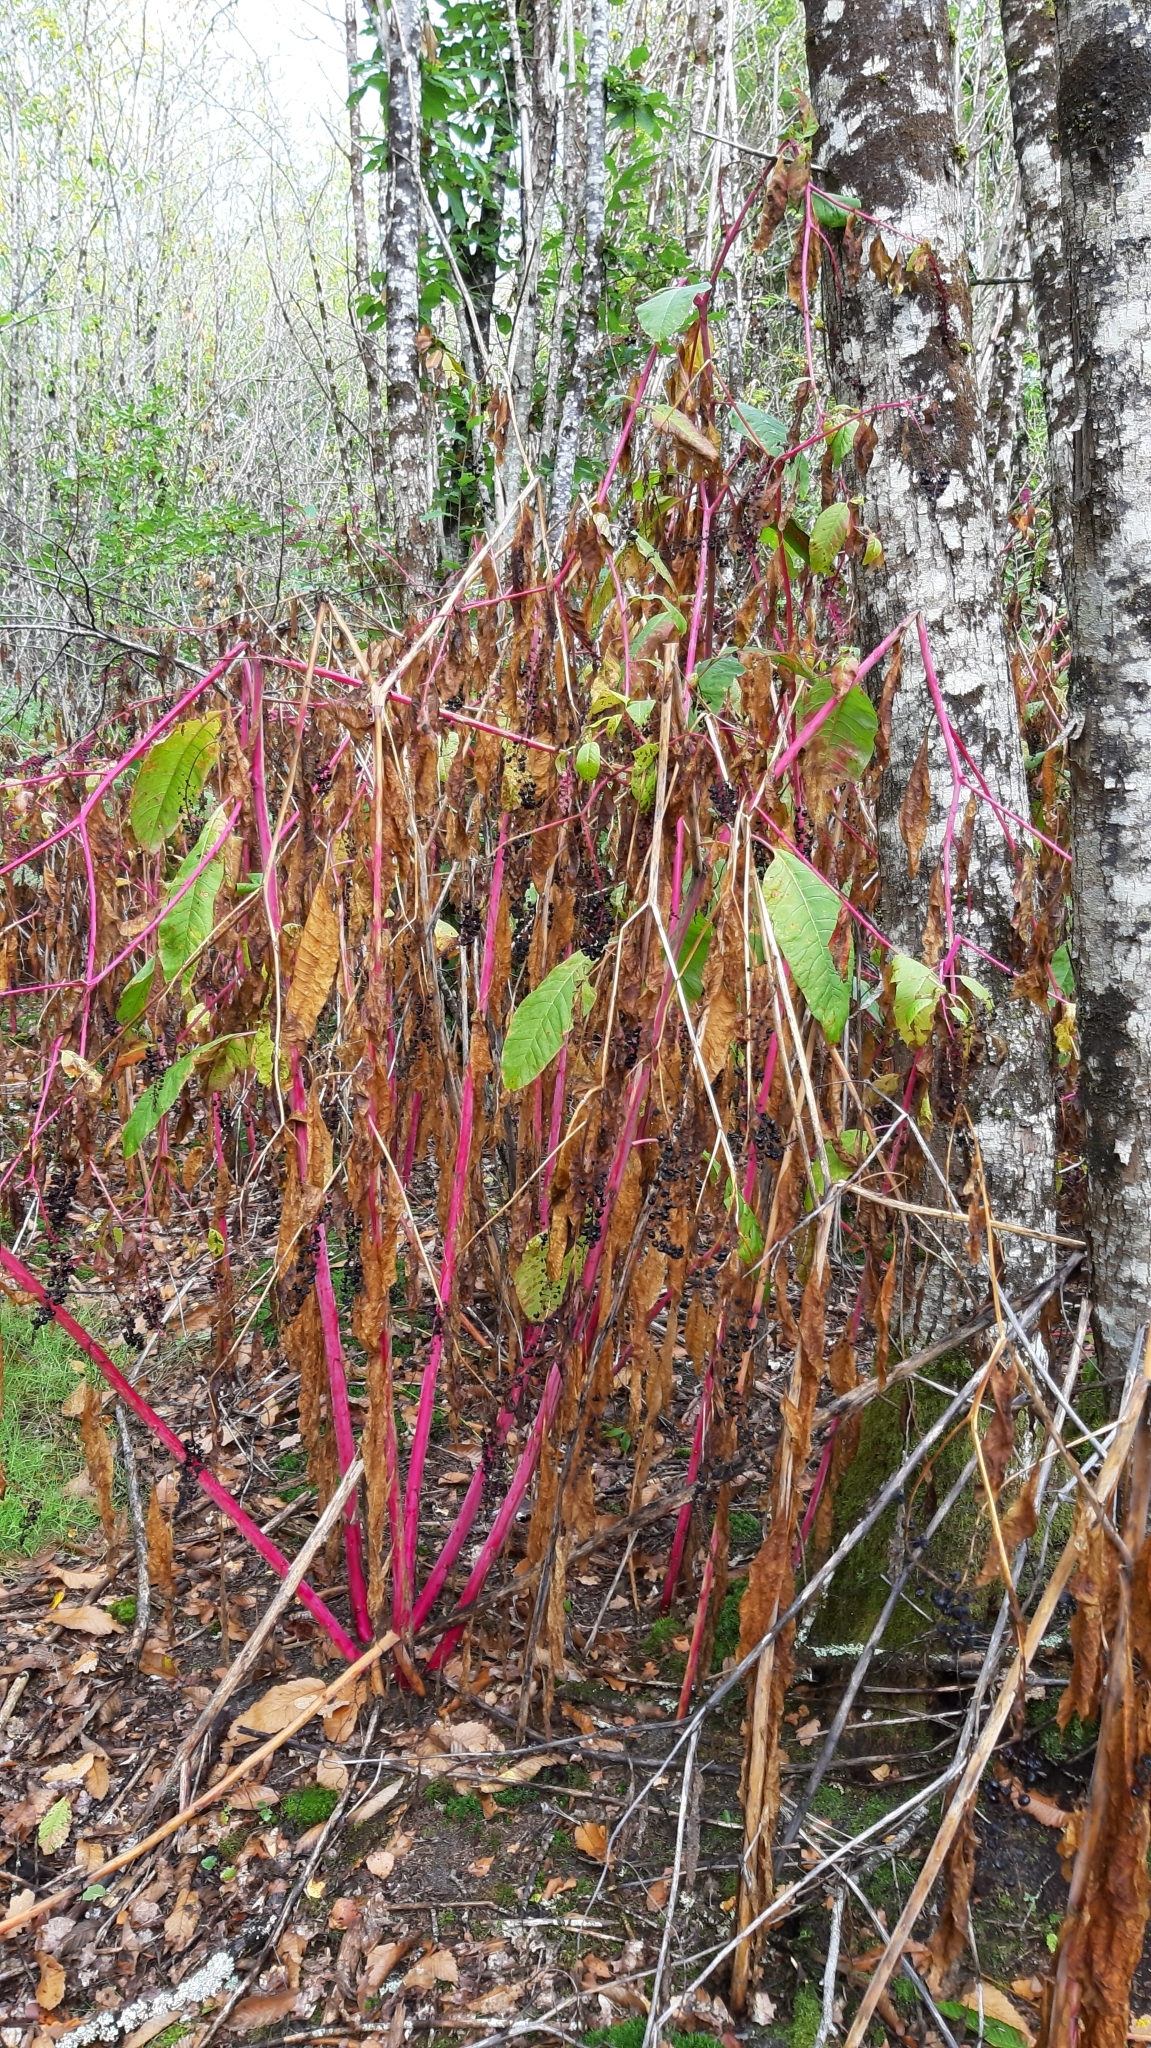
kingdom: Plantae
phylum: Tracheophyta
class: Magnoliopsida
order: Caryophyllales
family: Phytolaccaceae
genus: Phytolacca
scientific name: Phytolacca americana
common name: American pokeweed
